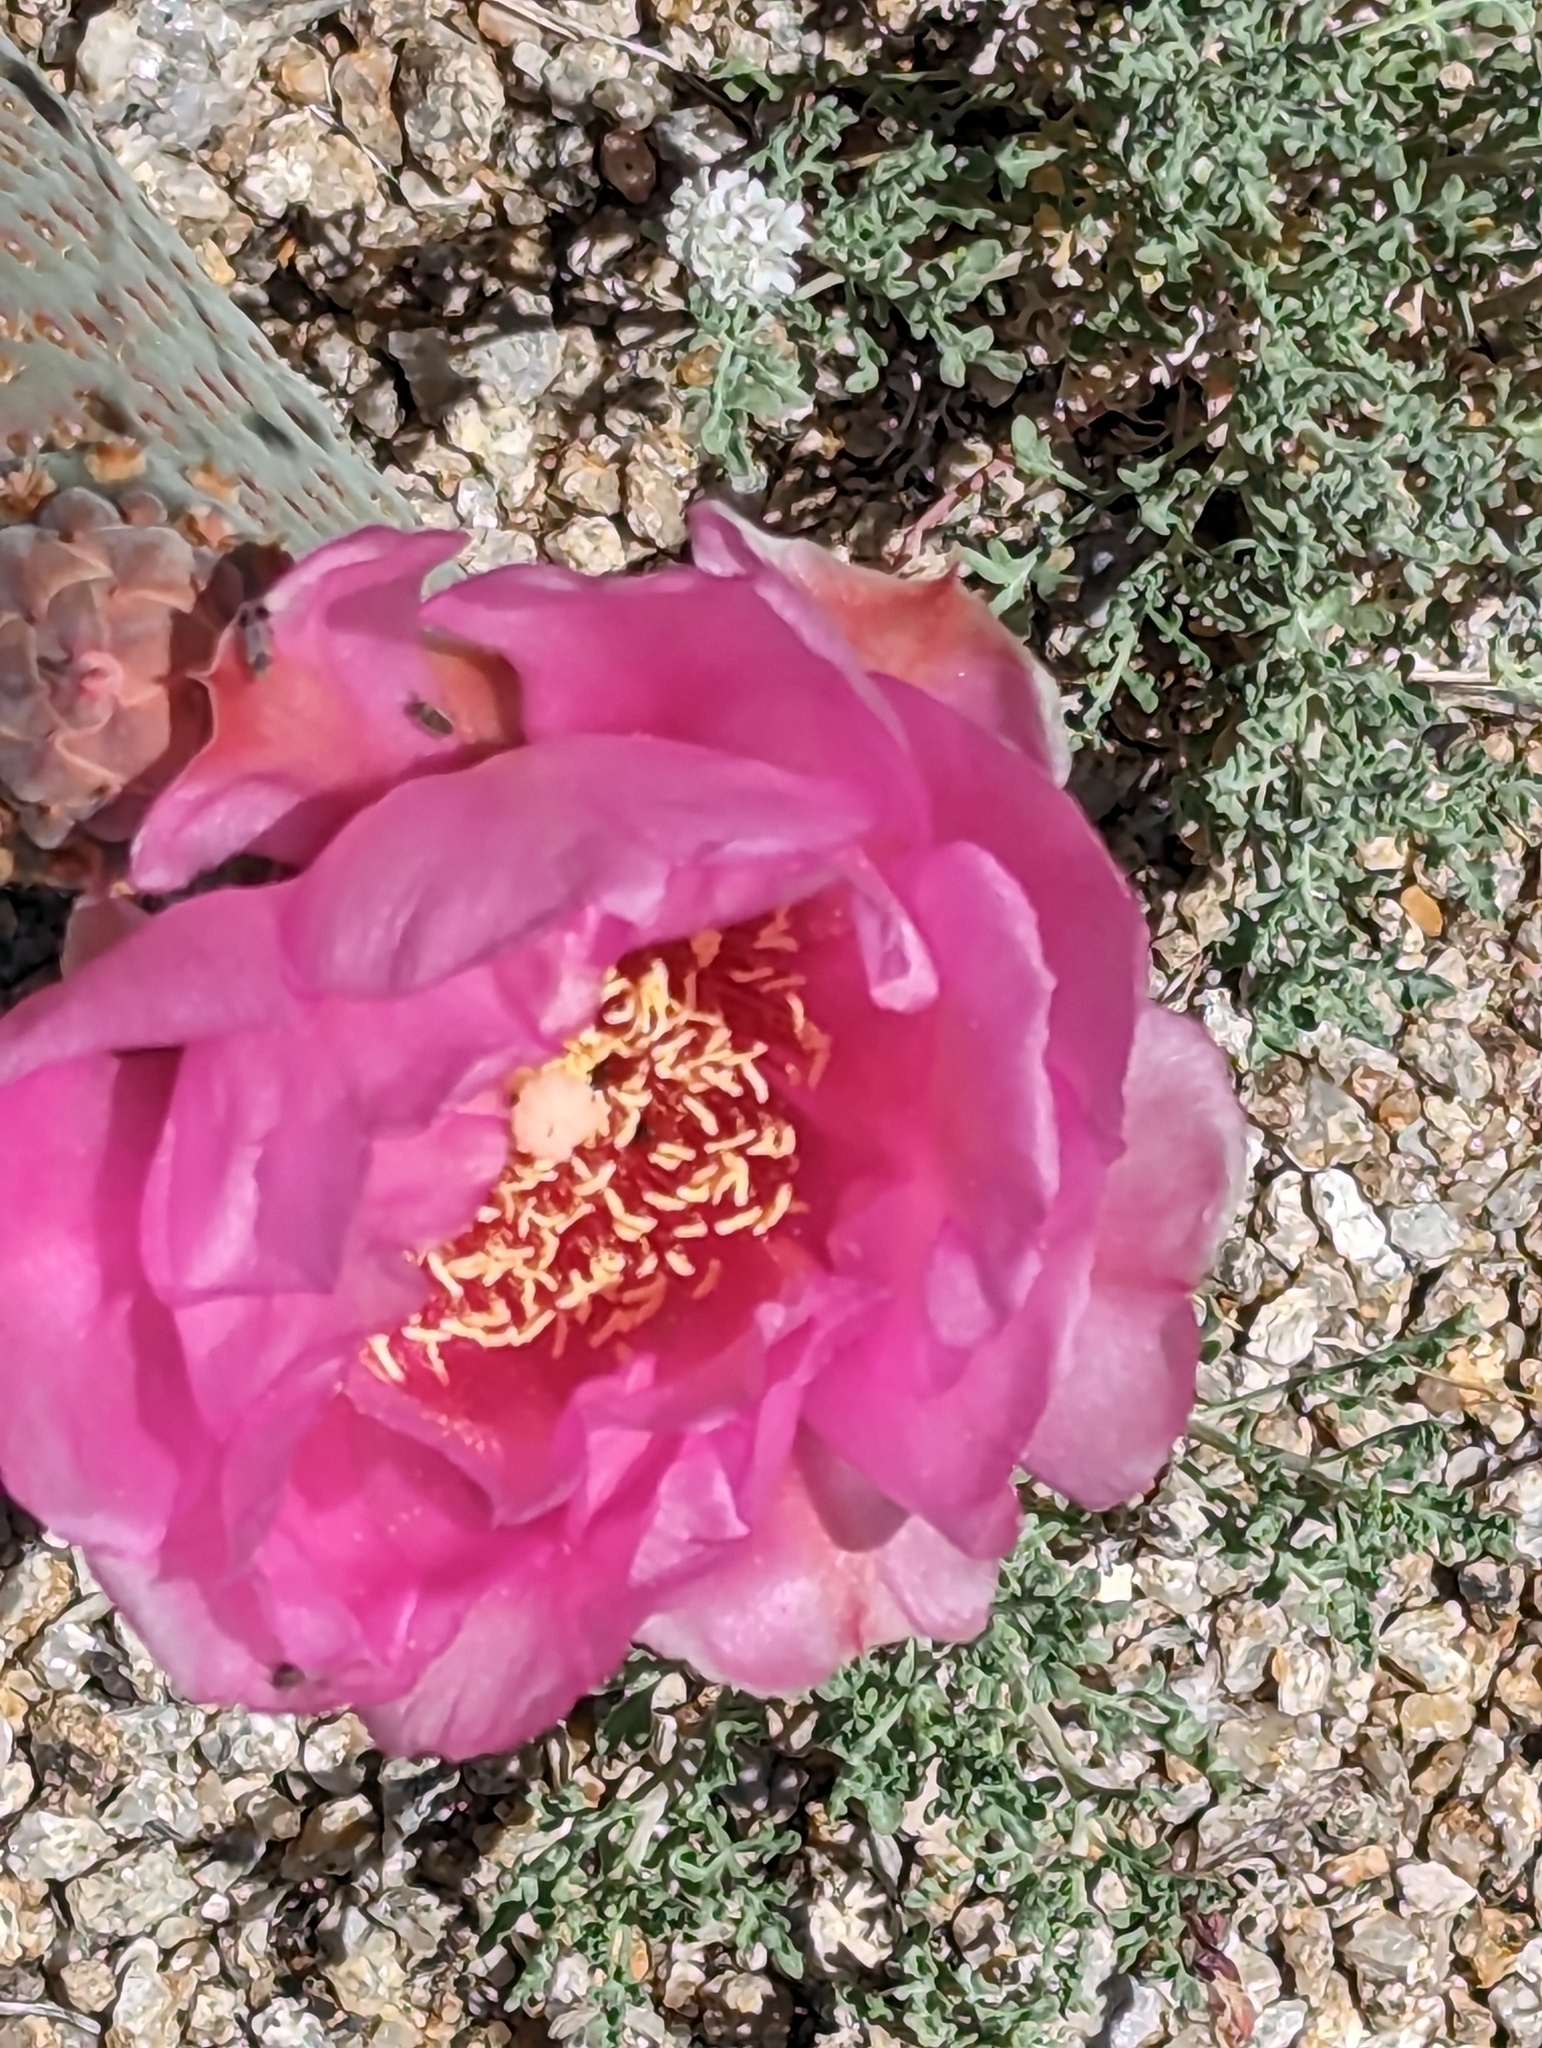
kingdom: Plantae
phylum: Tracheophyta
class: Magnoliopsida
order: Caryophyllales
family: Cactaceae
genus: Opuntia
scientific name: Opuntia basilaris
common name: Beavertail prickly-pear
